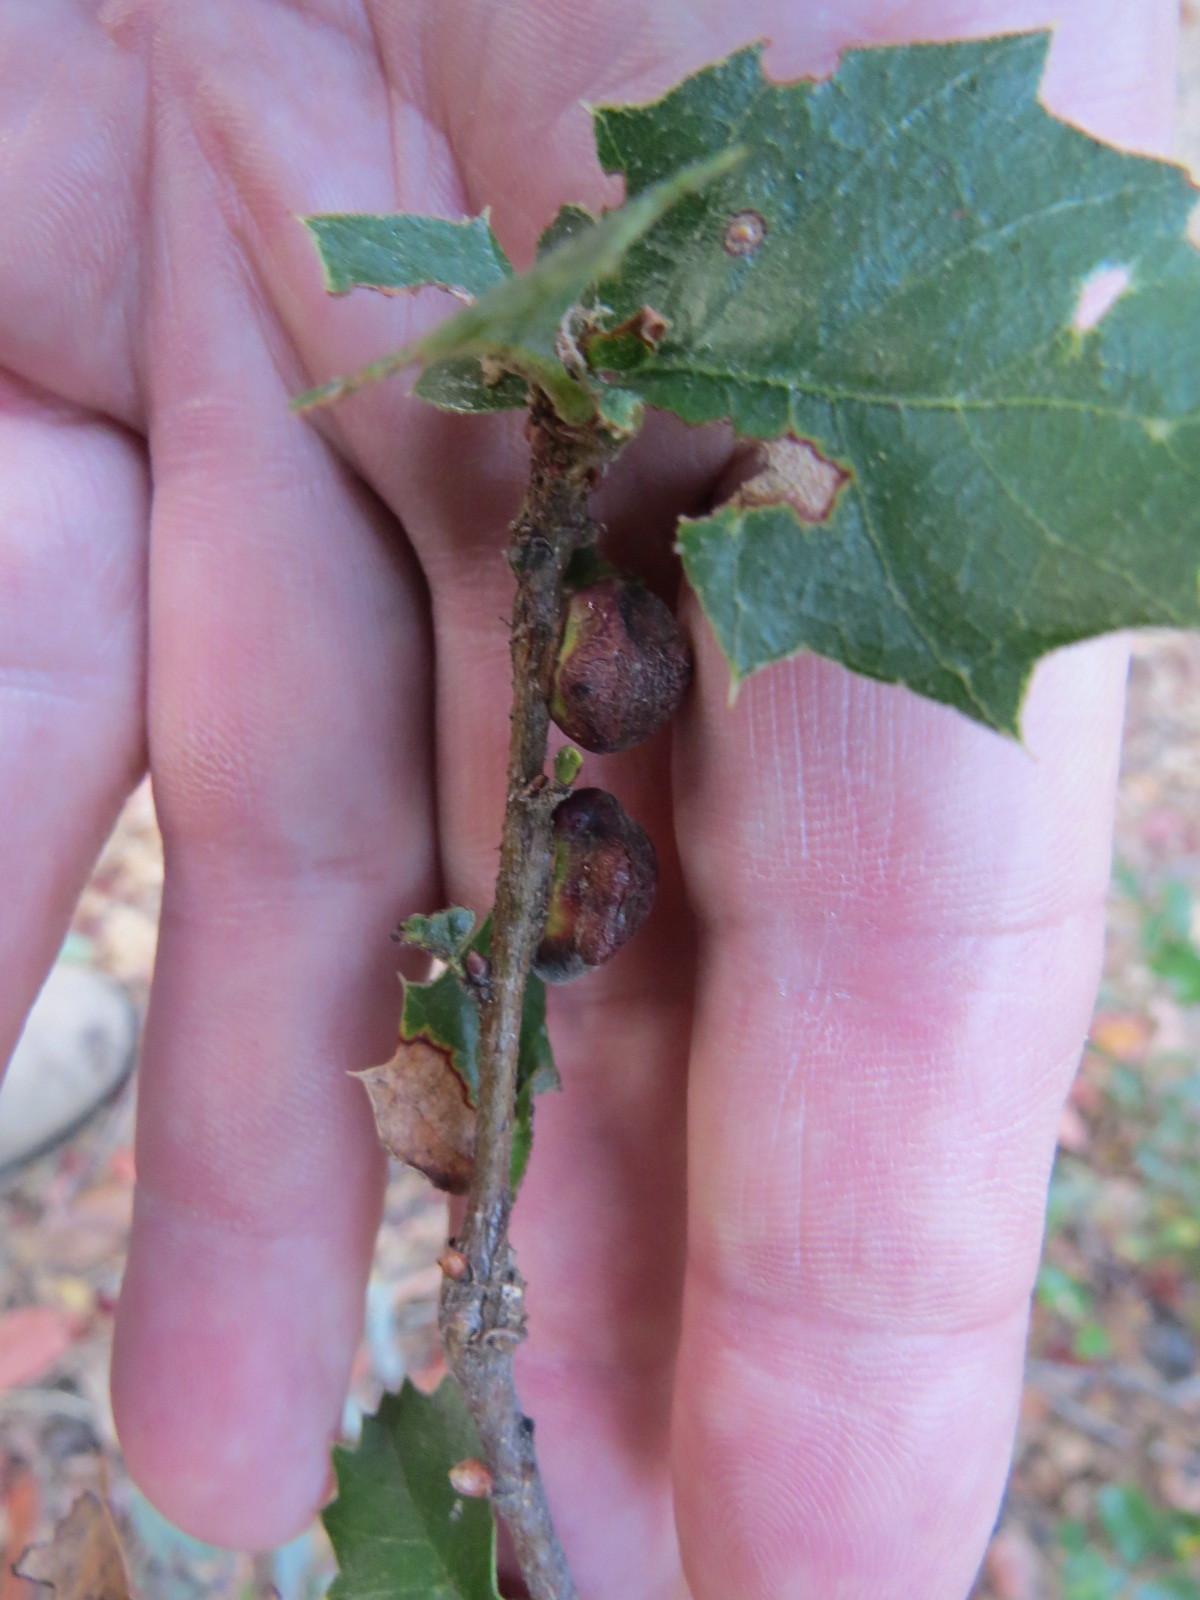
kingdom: Animalia
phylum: Arthropoda
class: Insecta
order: Hymenoptera
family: Cynipidae
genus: Disholandricus
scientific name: Disholandricus
